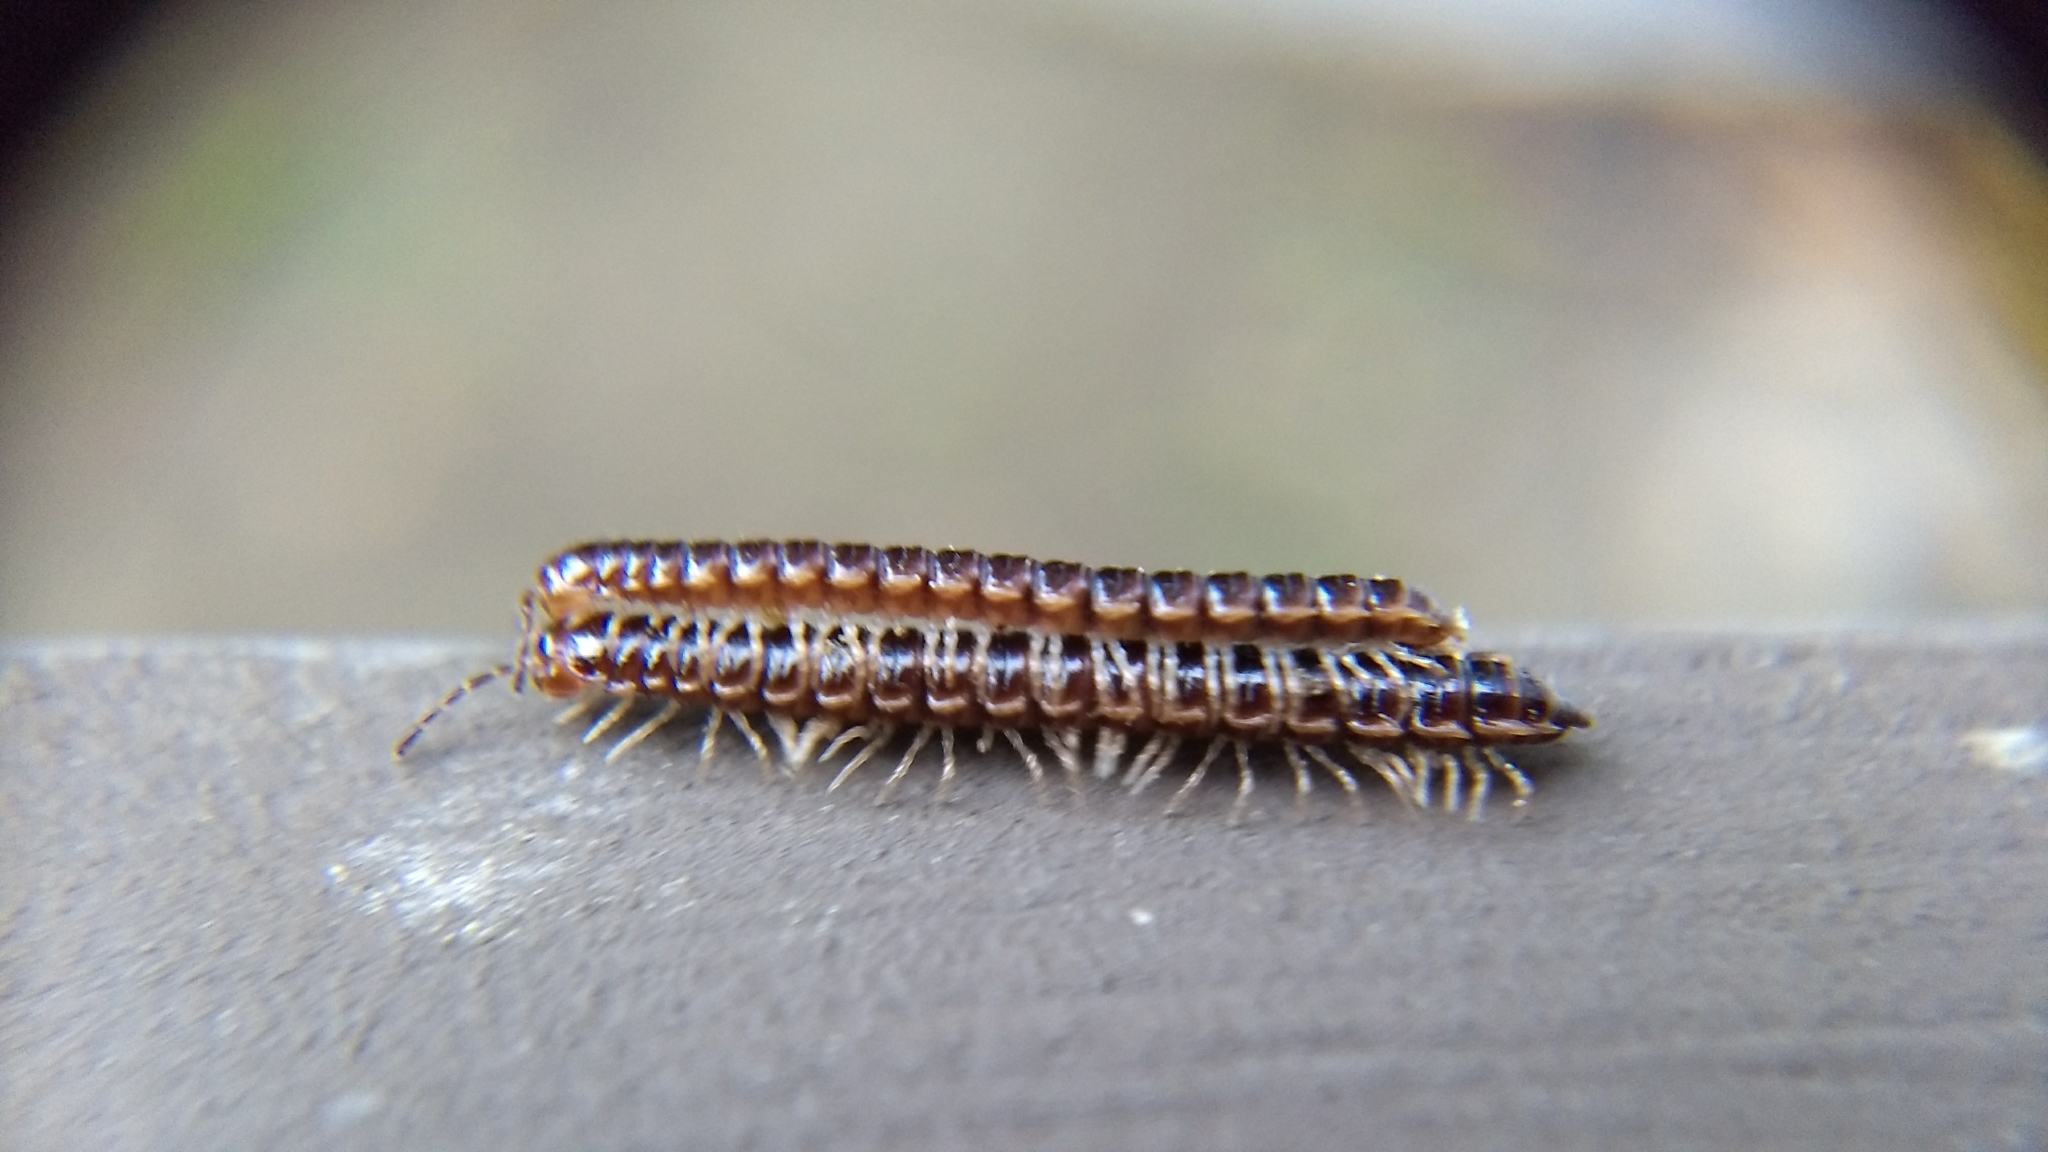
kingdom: Animalia
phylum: Arthropoda
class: Diplopoda
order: Polydesmida
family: Paradoxosomatidae
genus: Oxidus
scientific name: Oxidus gracilis
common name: Greenhouse millipede
